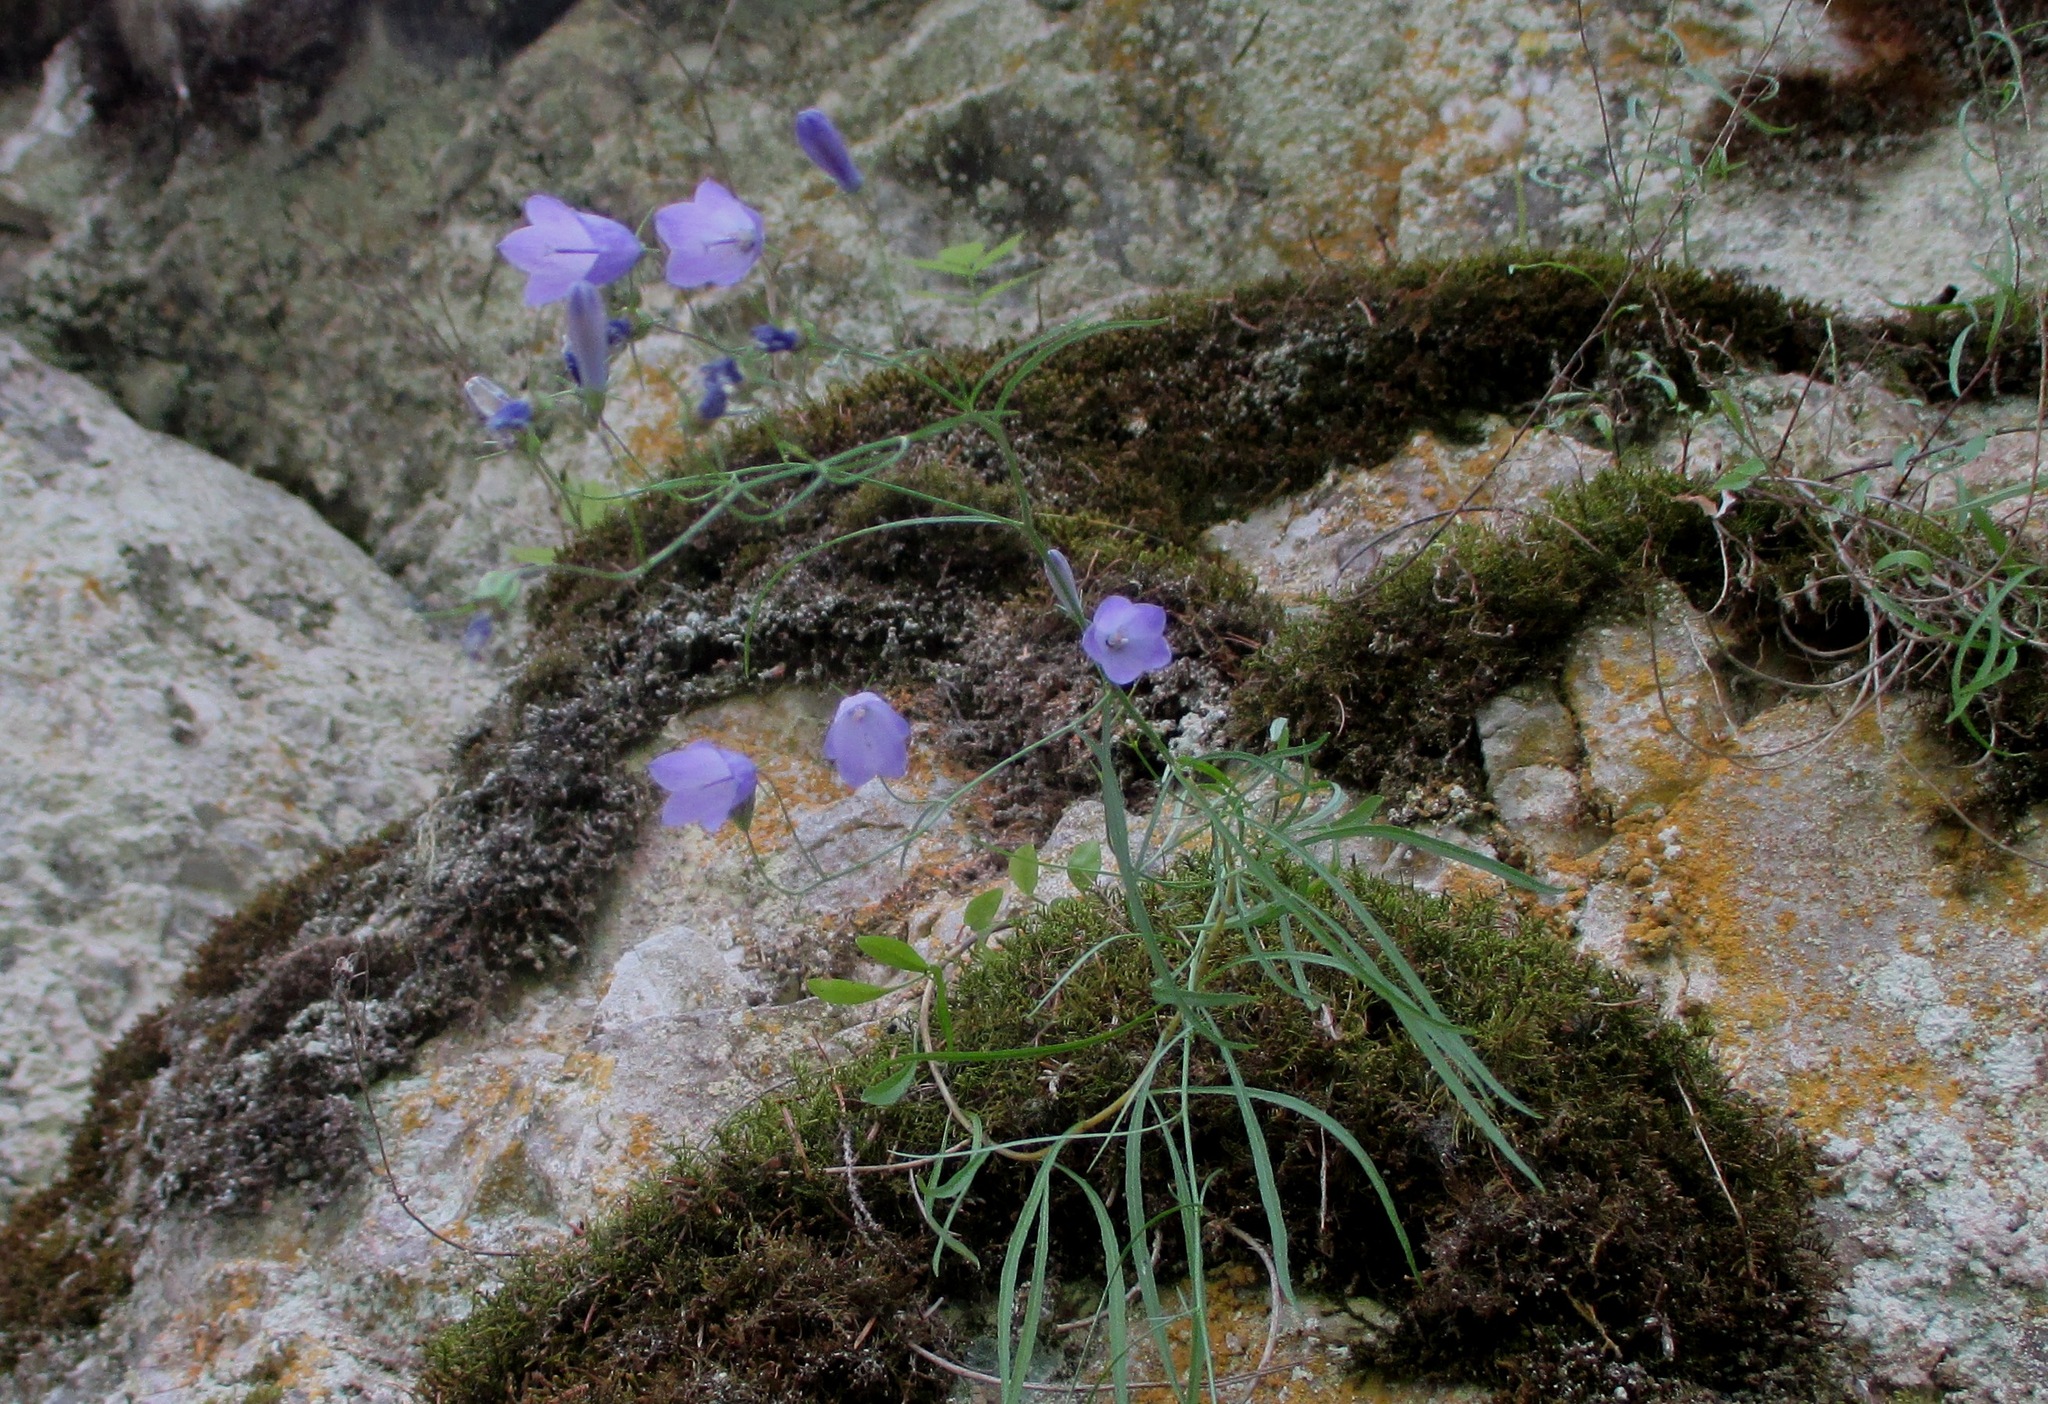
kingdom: Plantae
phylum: Tracheophyta
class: Magnoliopsida
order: Asterales
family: Campanulaceae
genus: Campanula
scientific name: Campanula rotundifolia
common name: Harebell
